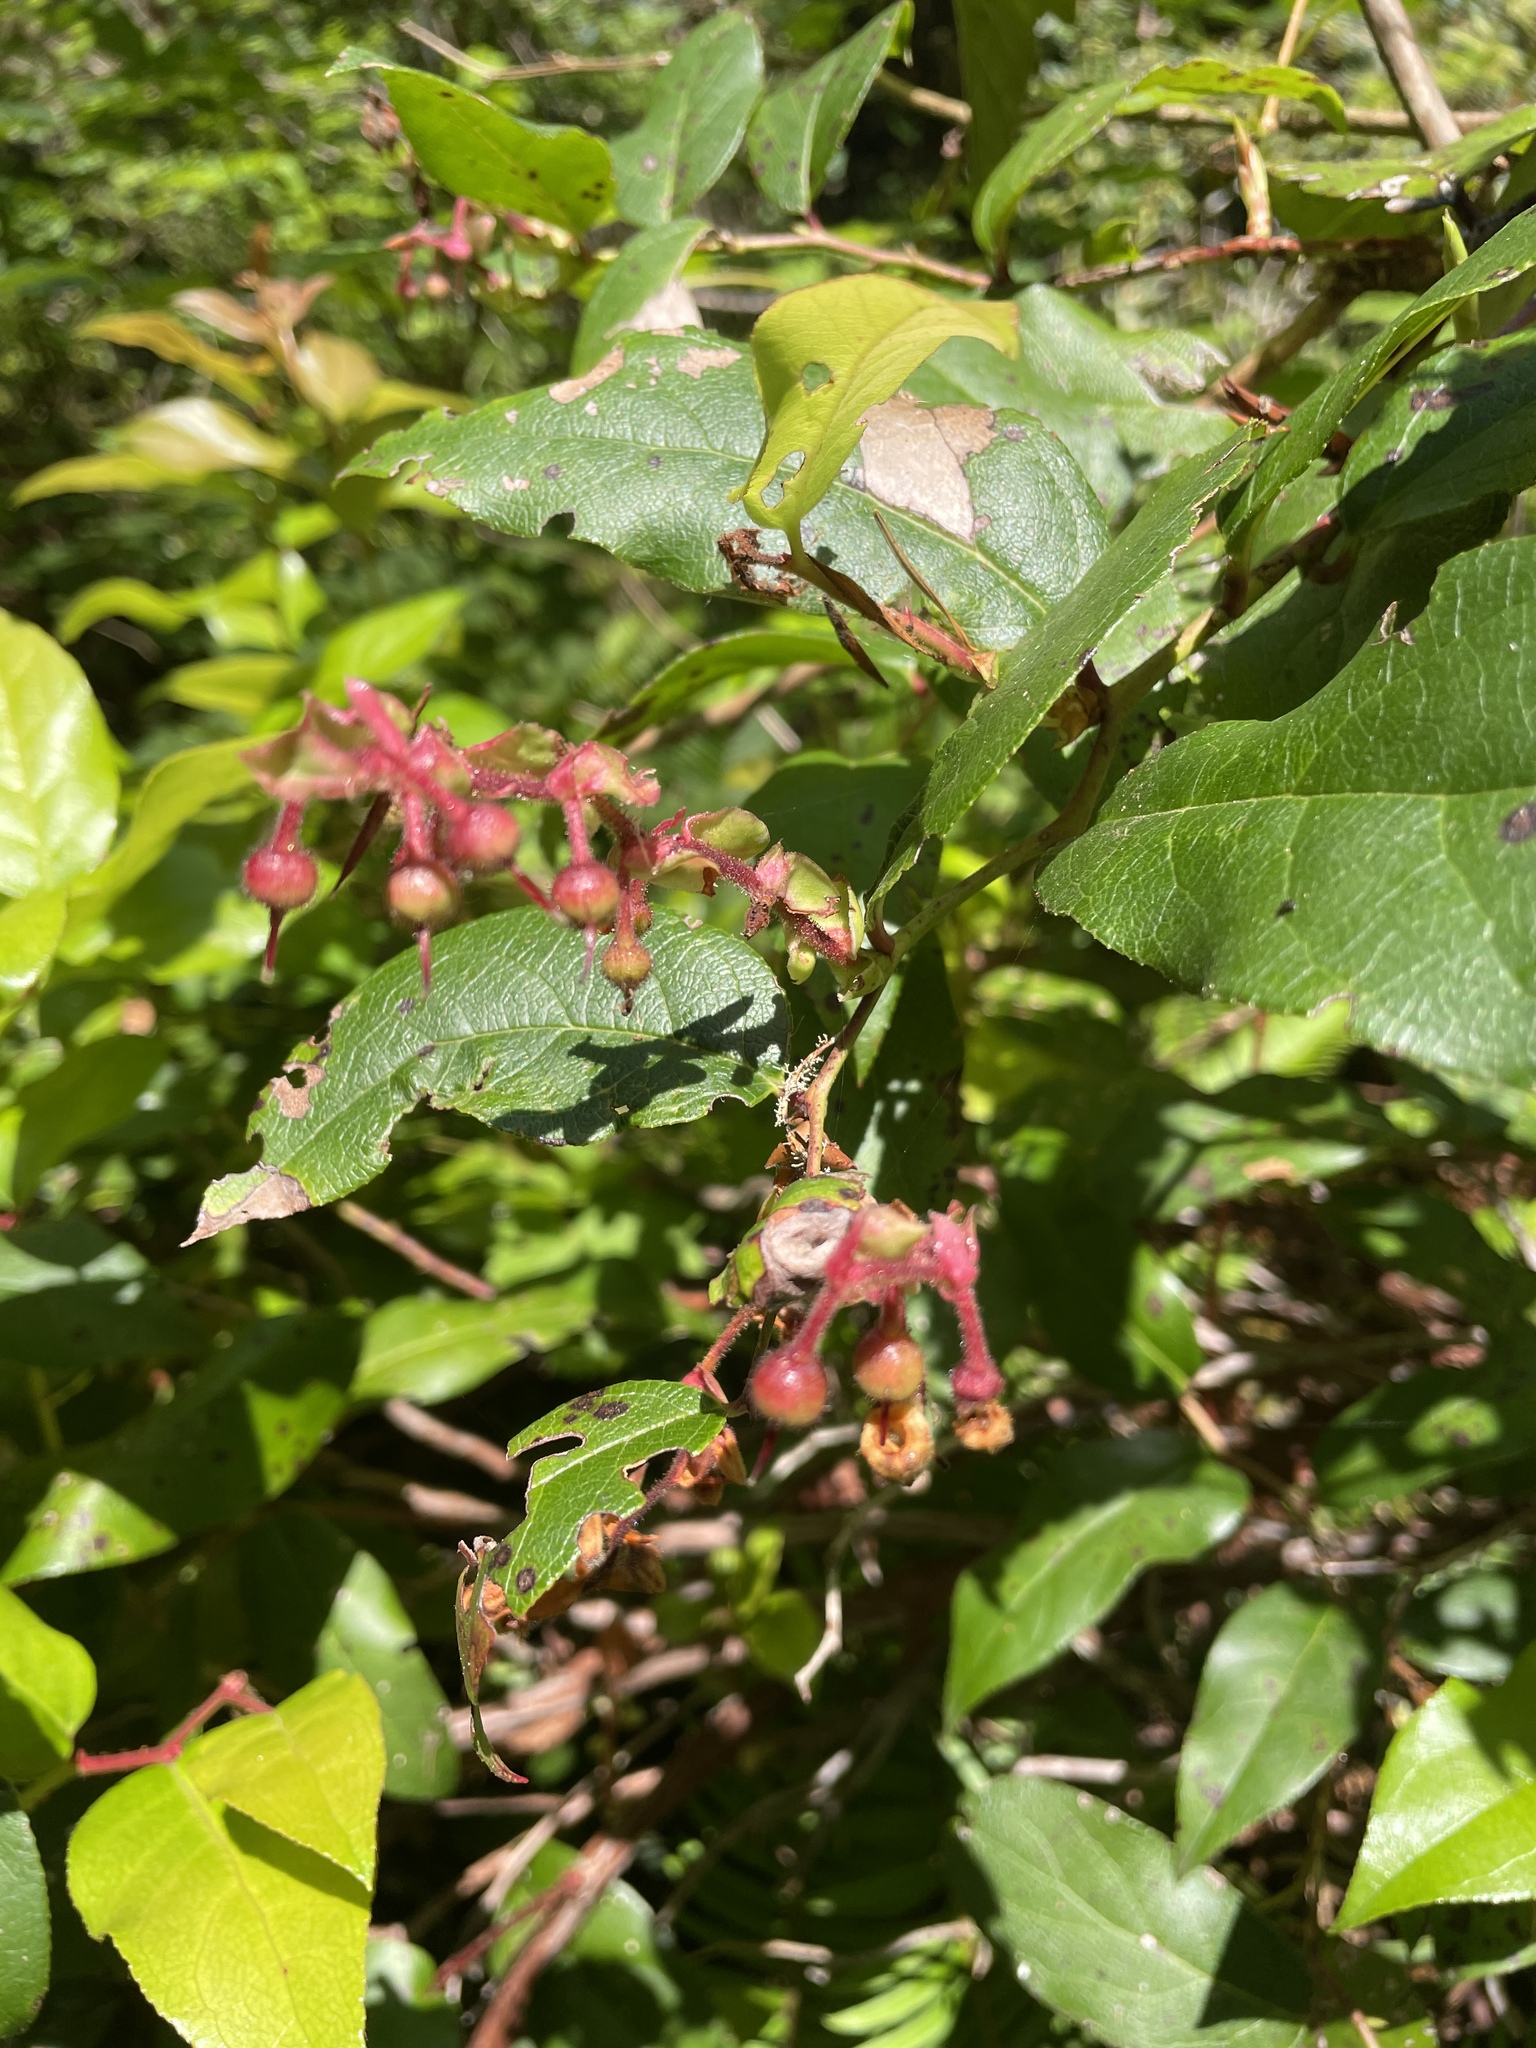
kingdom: Plantae
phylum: Tracheophyta
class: Magnoliopsida
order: Ericales
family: Ericaceae
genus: Gaultheria
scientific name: Gaultheria shallon
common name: Shallon
